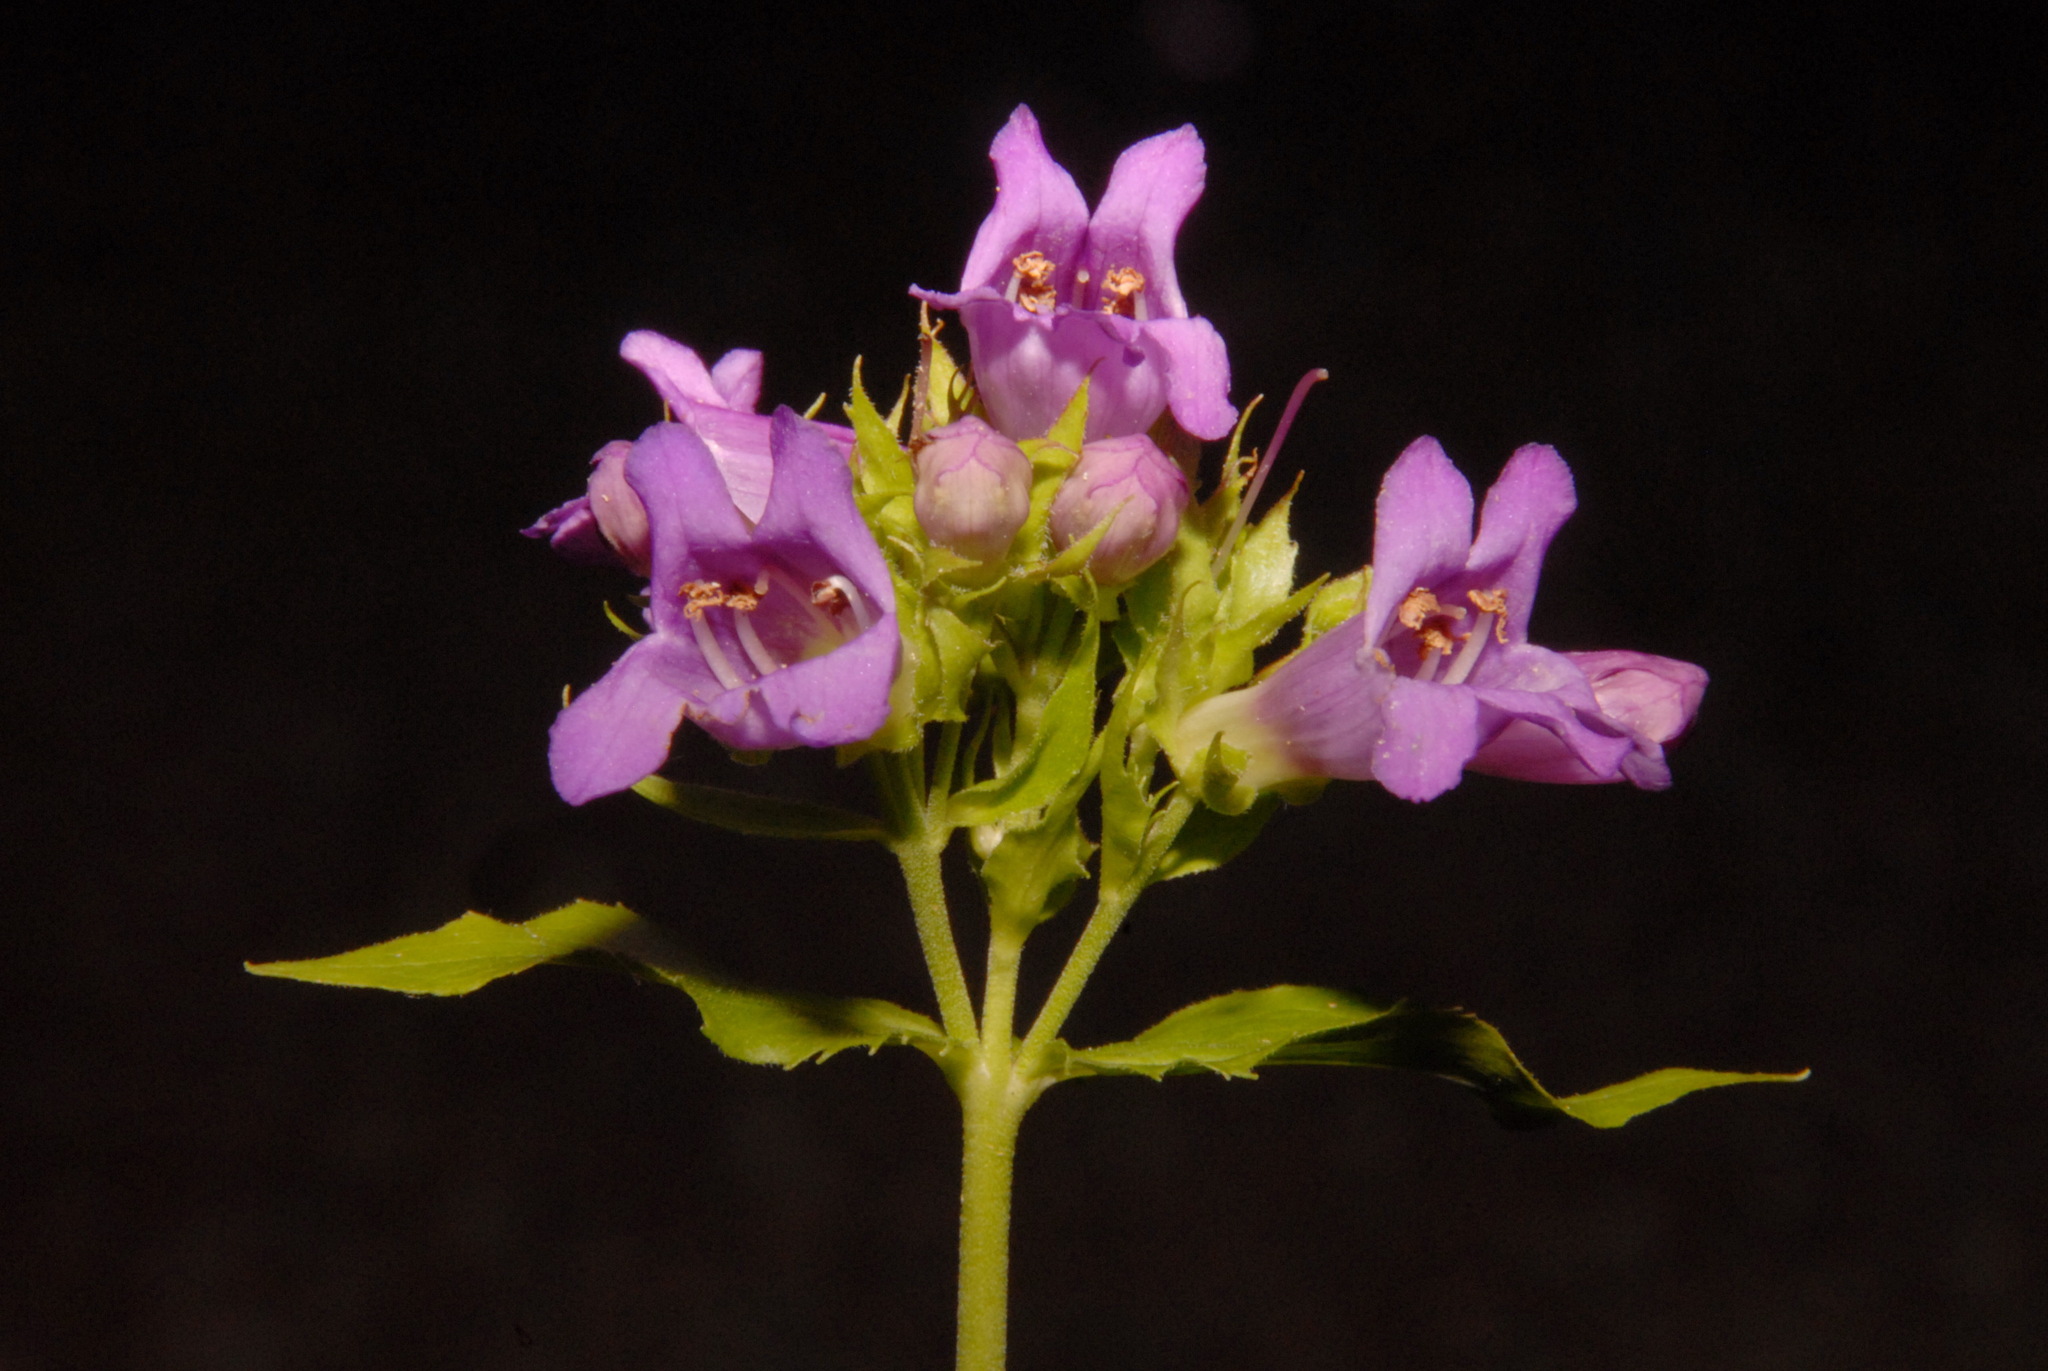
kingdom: Plantae
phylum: Tracheophyta
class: Magnoliopsida
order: Lamiales
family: Plantaginaceae
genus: Penstemon
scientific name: Penstemon serrulatus
